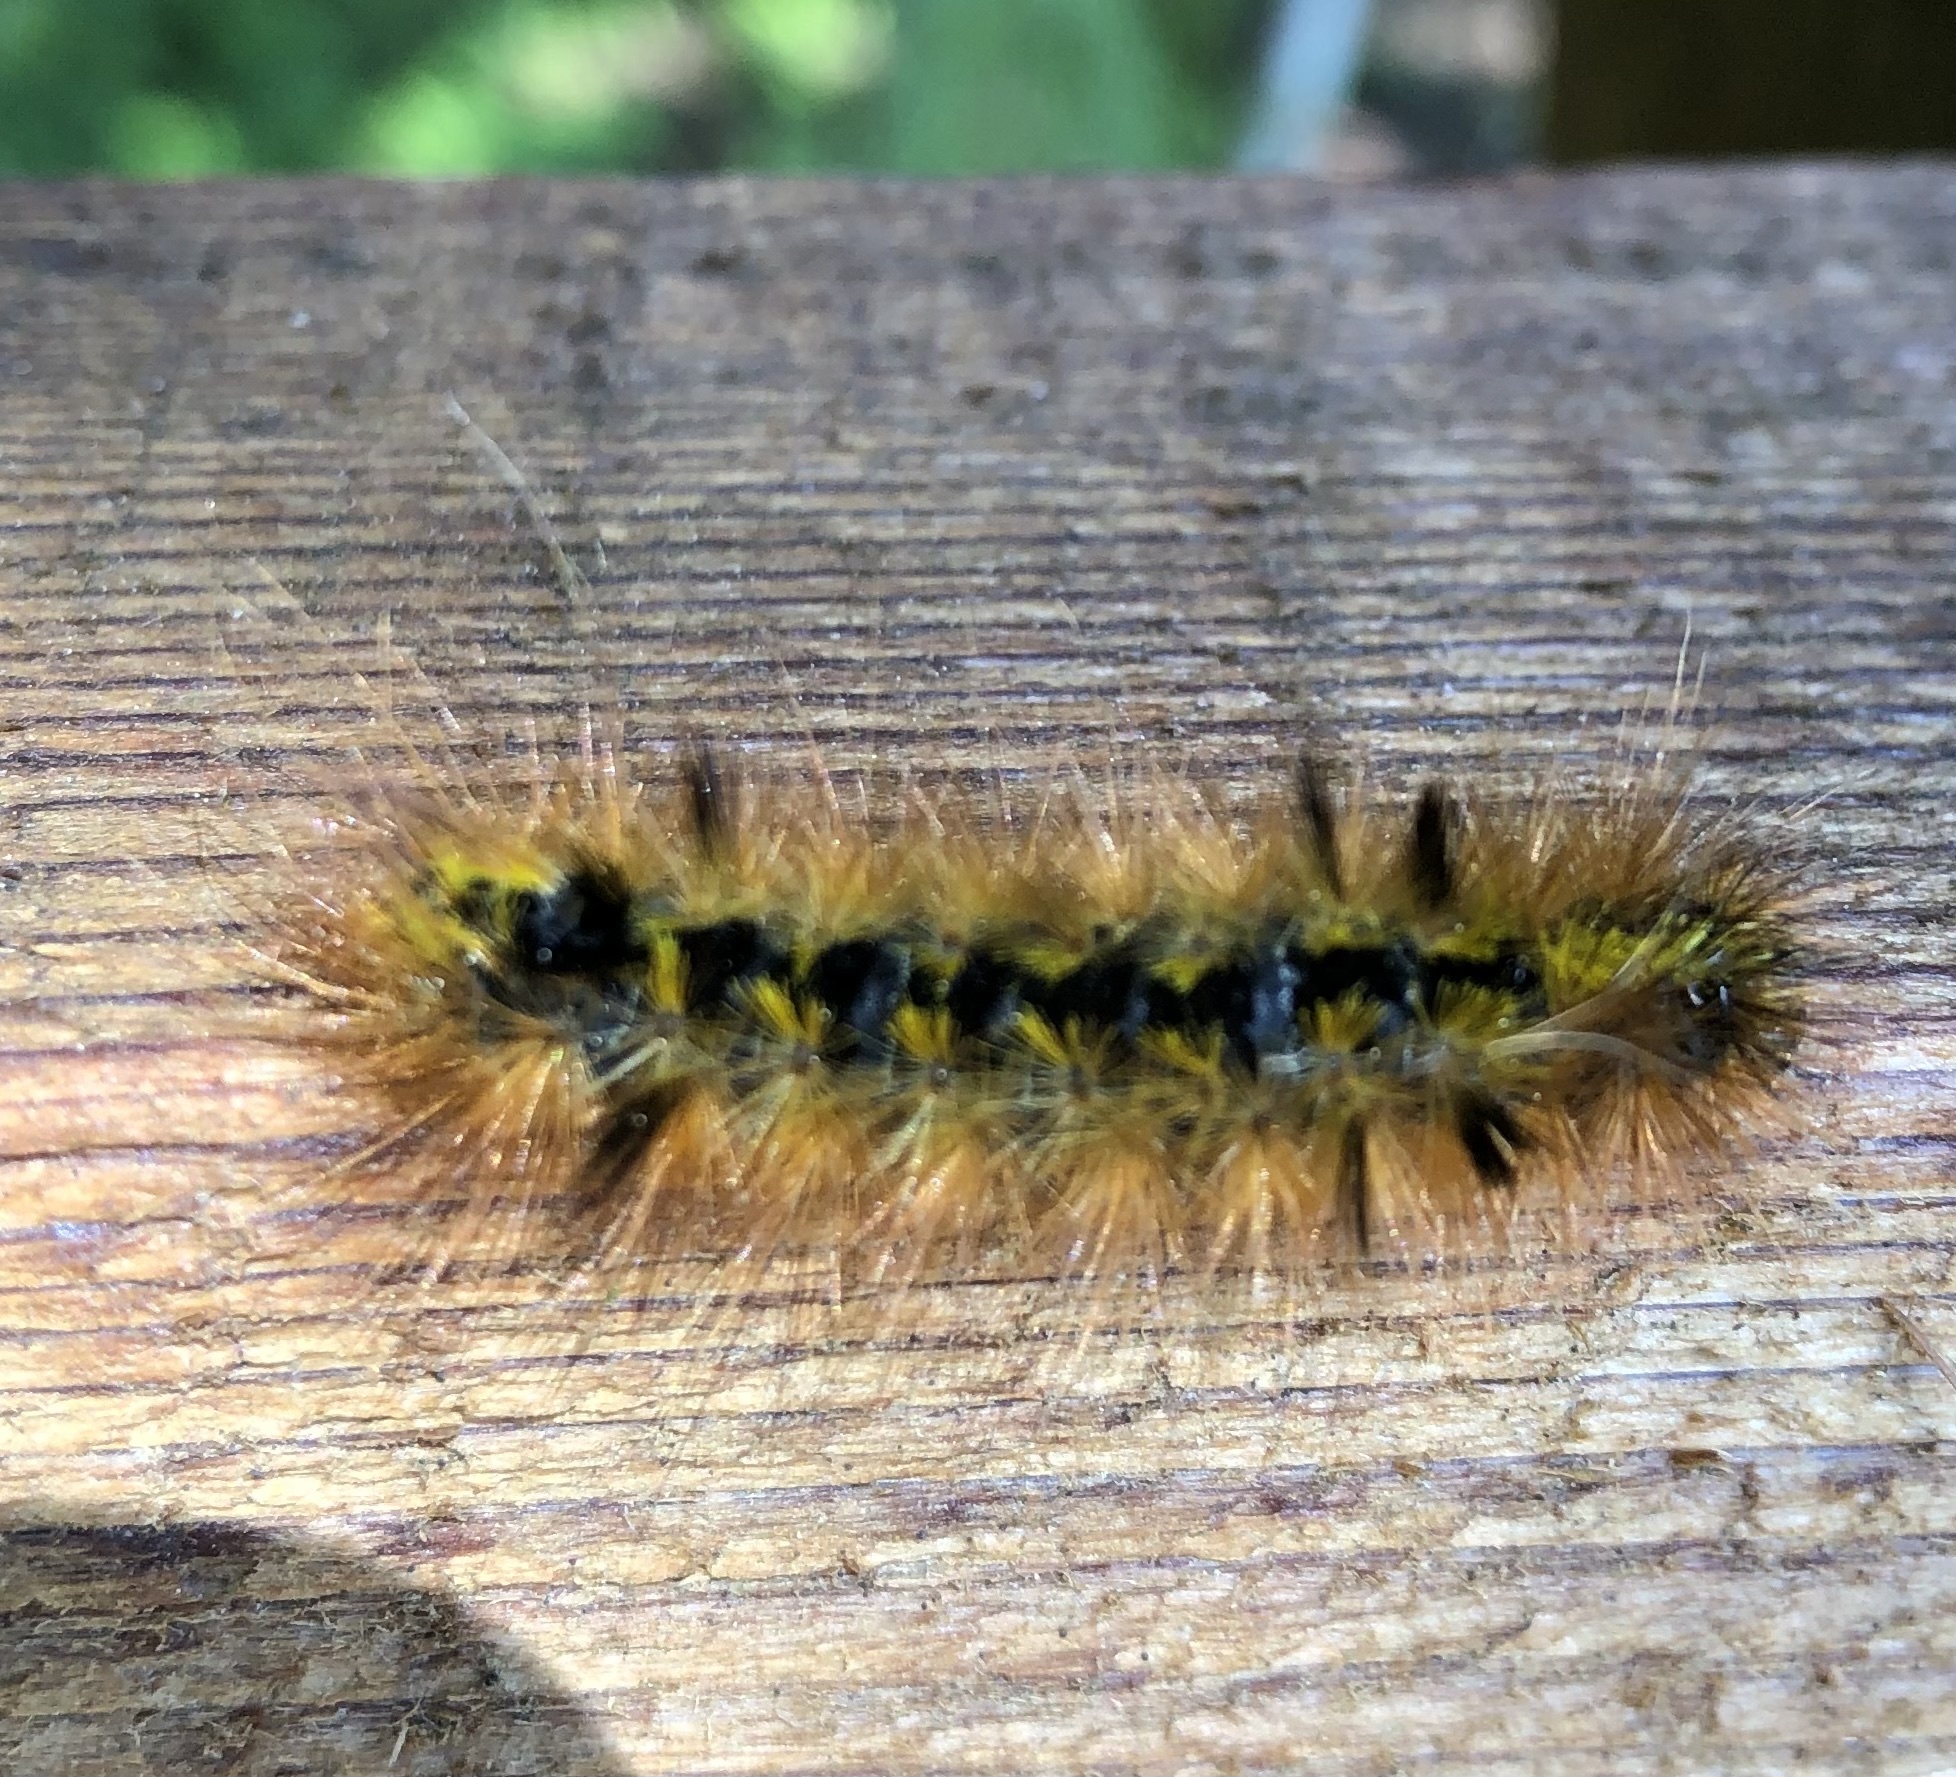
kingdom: Animalia
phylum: Arthropoda
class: Insecta
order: Lepidoptera
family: Erebidae
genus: Lophocampa
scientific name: Lophocampa argentata
